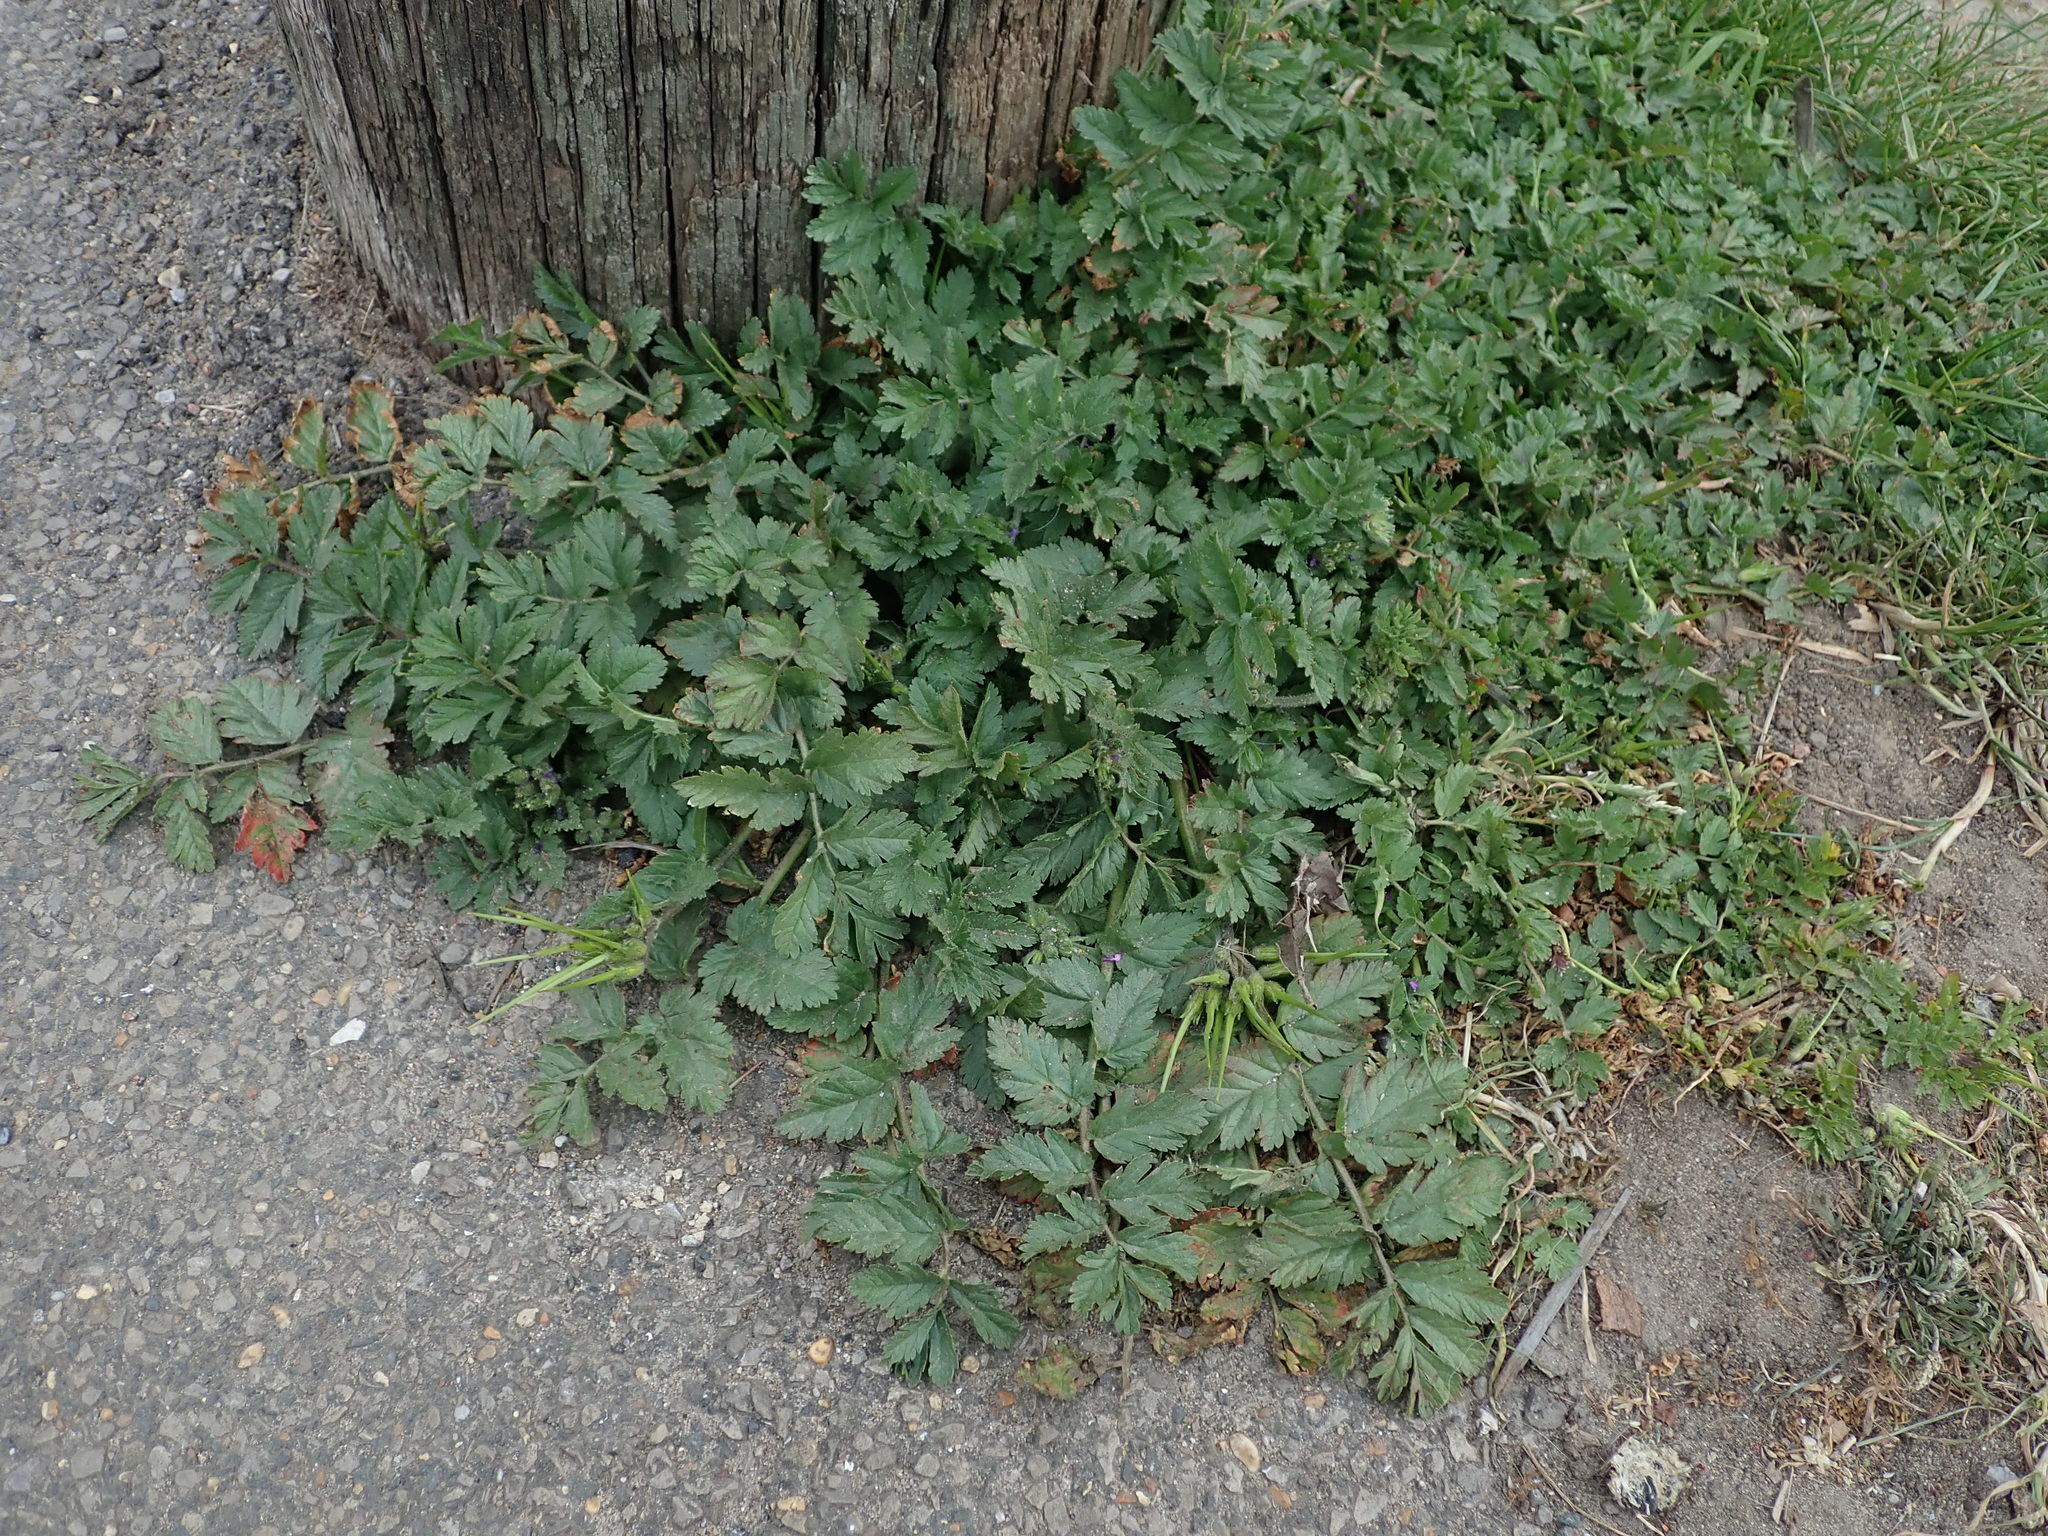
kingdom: Plantae
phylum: Tracheophyta
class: Magnoliopsida
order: Geraniales
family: Geraniaceae
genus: Erodium
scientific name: Erodium moschatum
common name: Musk stork's-bill
